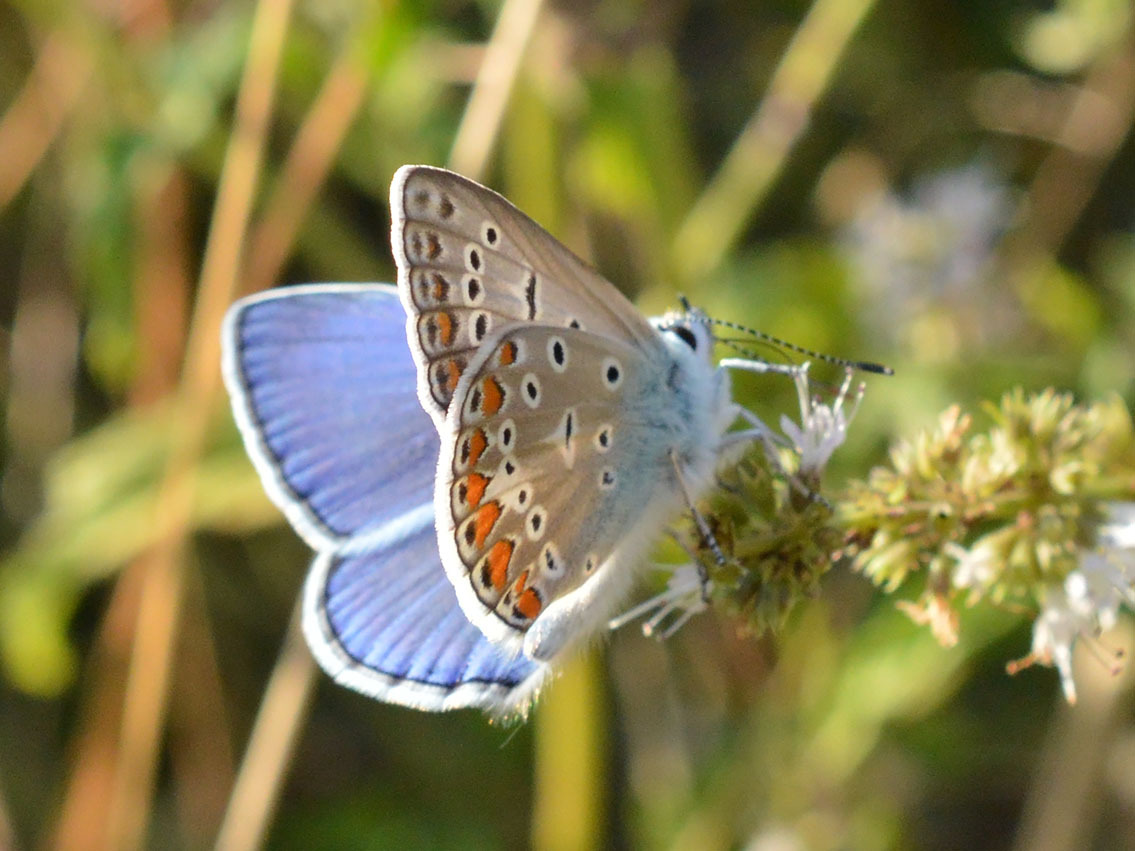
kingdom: Animalia
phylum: Arthropoda
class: Insecta
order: Lepidoptera
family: Lycaenidae
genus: Polyommatus
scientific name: Polyommatus icarus
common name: Common blue
